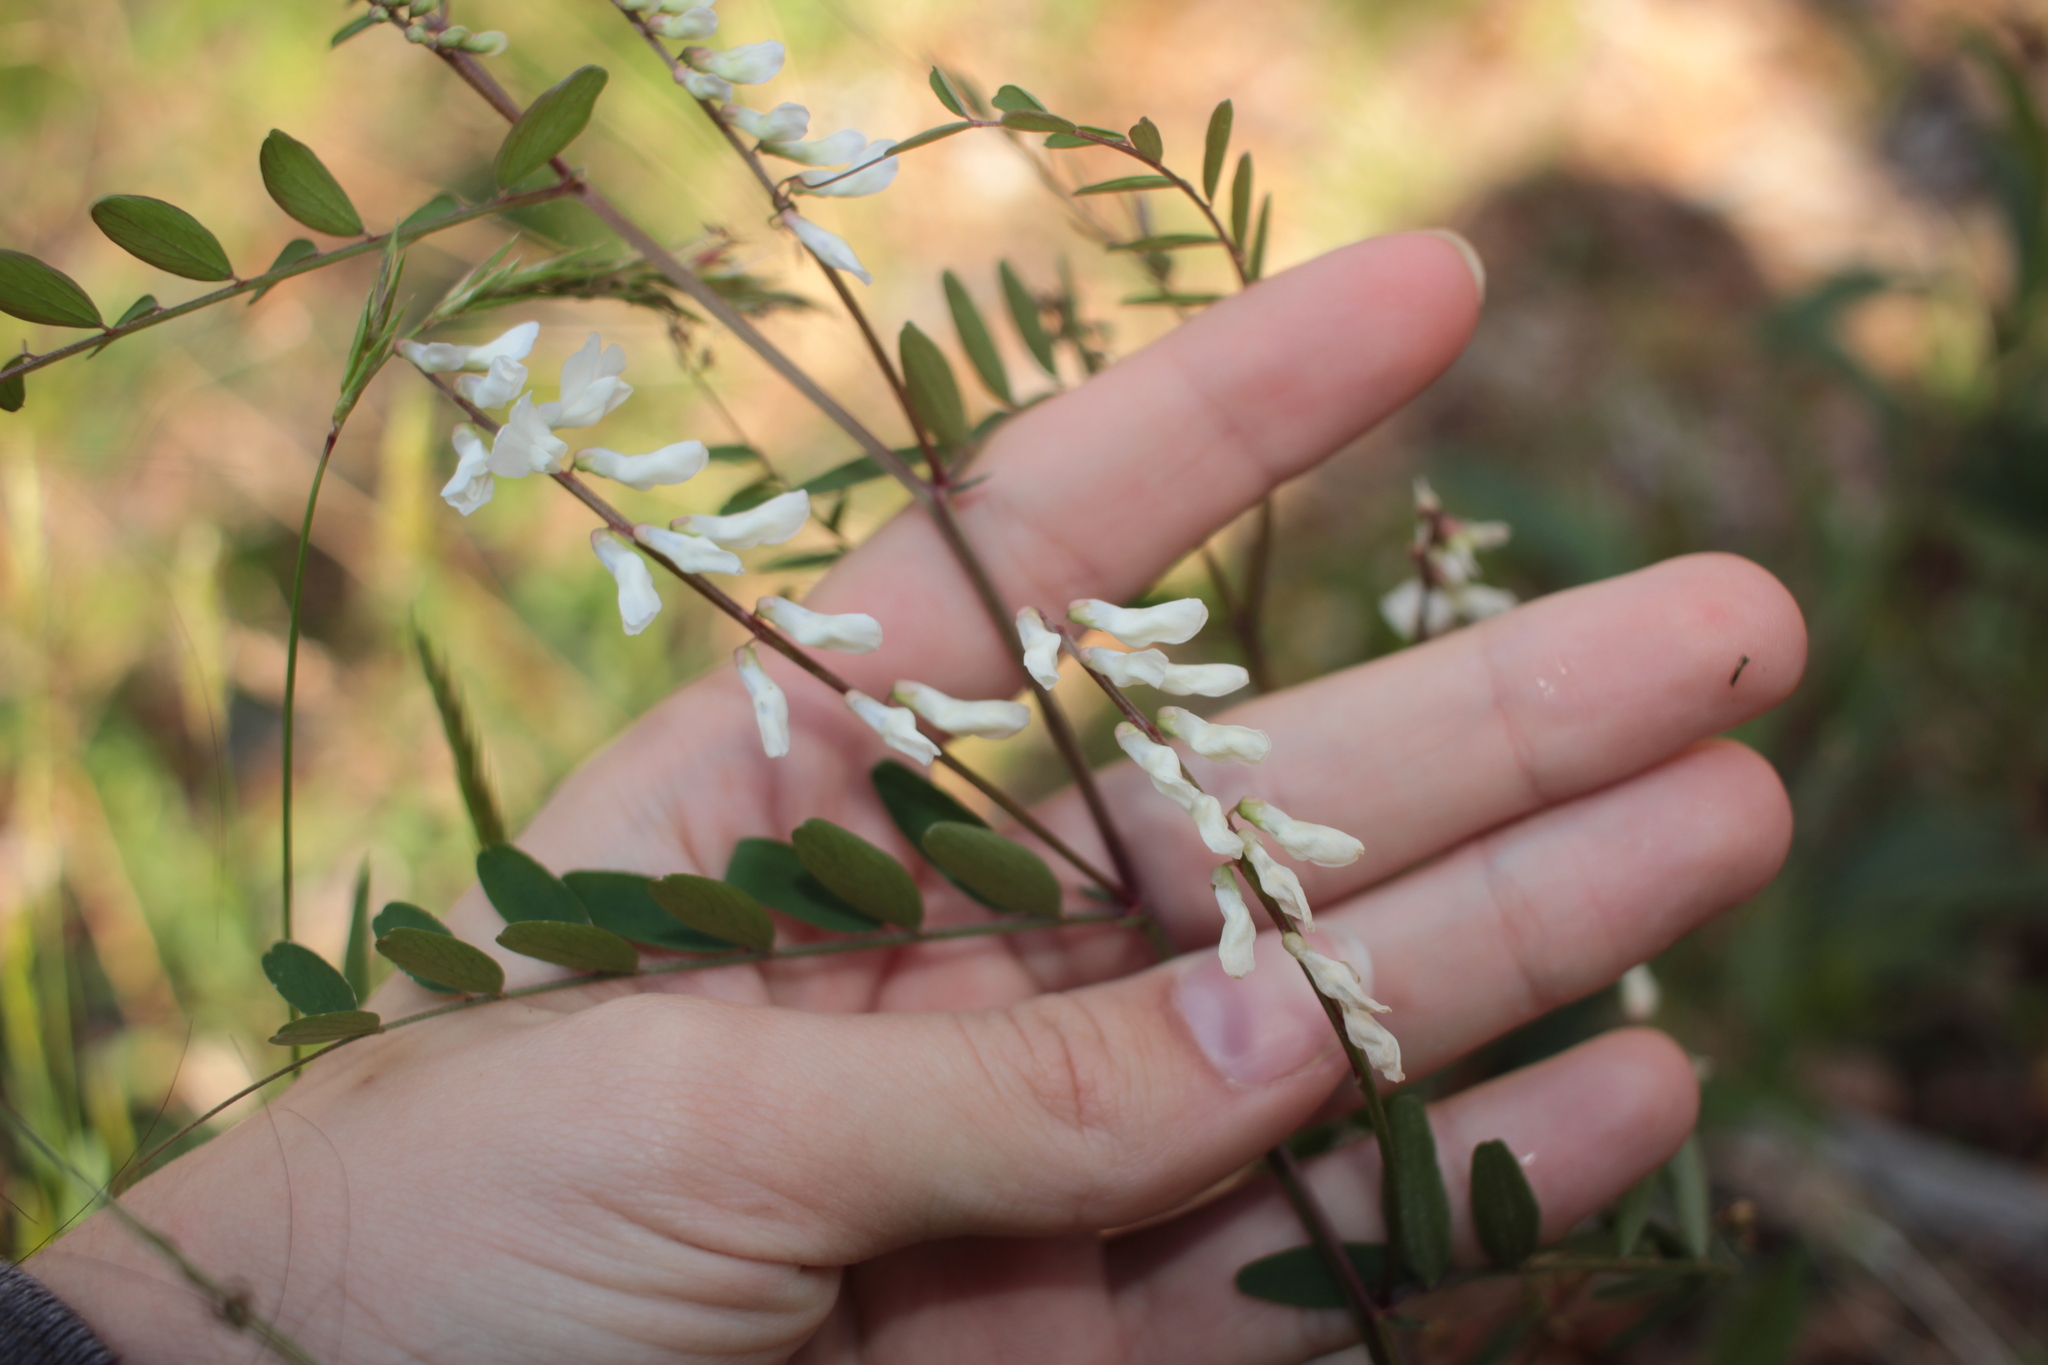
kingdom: Plantae
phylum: Tracheophyta
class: Magnoliopsida
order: Fabales
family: Fabaceae
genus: Vicia
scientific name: Vicia caroliniana
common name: Carolina vetch
